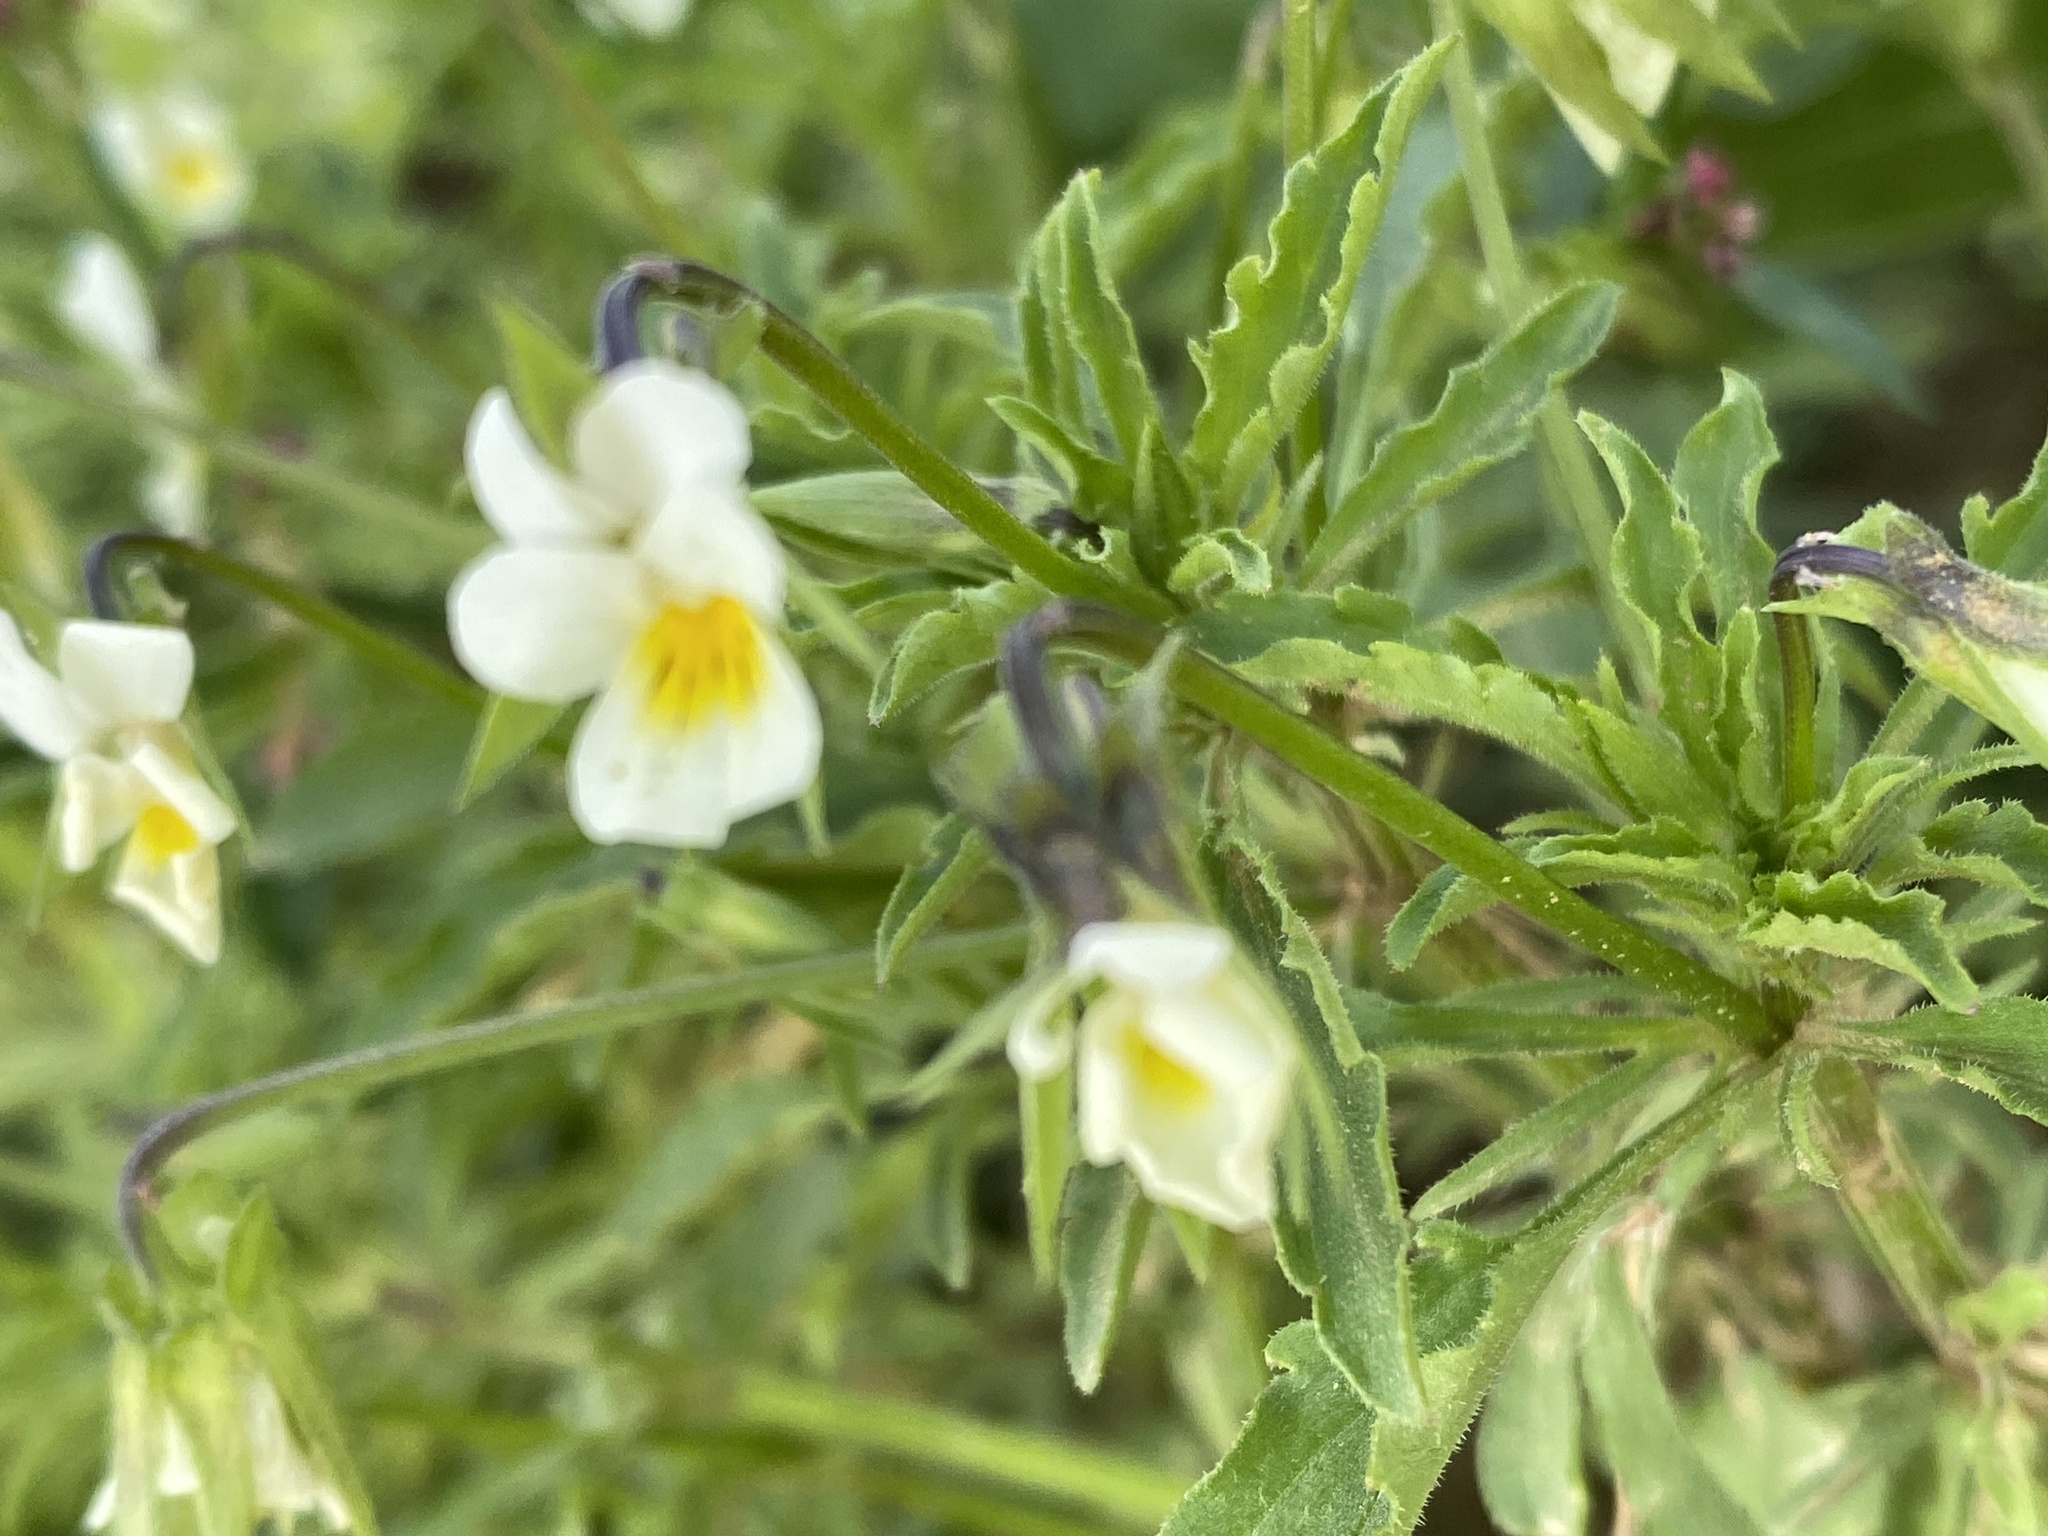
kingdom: Plantae
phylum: Tracheophyta
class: Magnoliopsida
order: Malpighiales
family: Violaceae
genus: Viola
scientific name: Viola arvensis
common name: Field pansy
